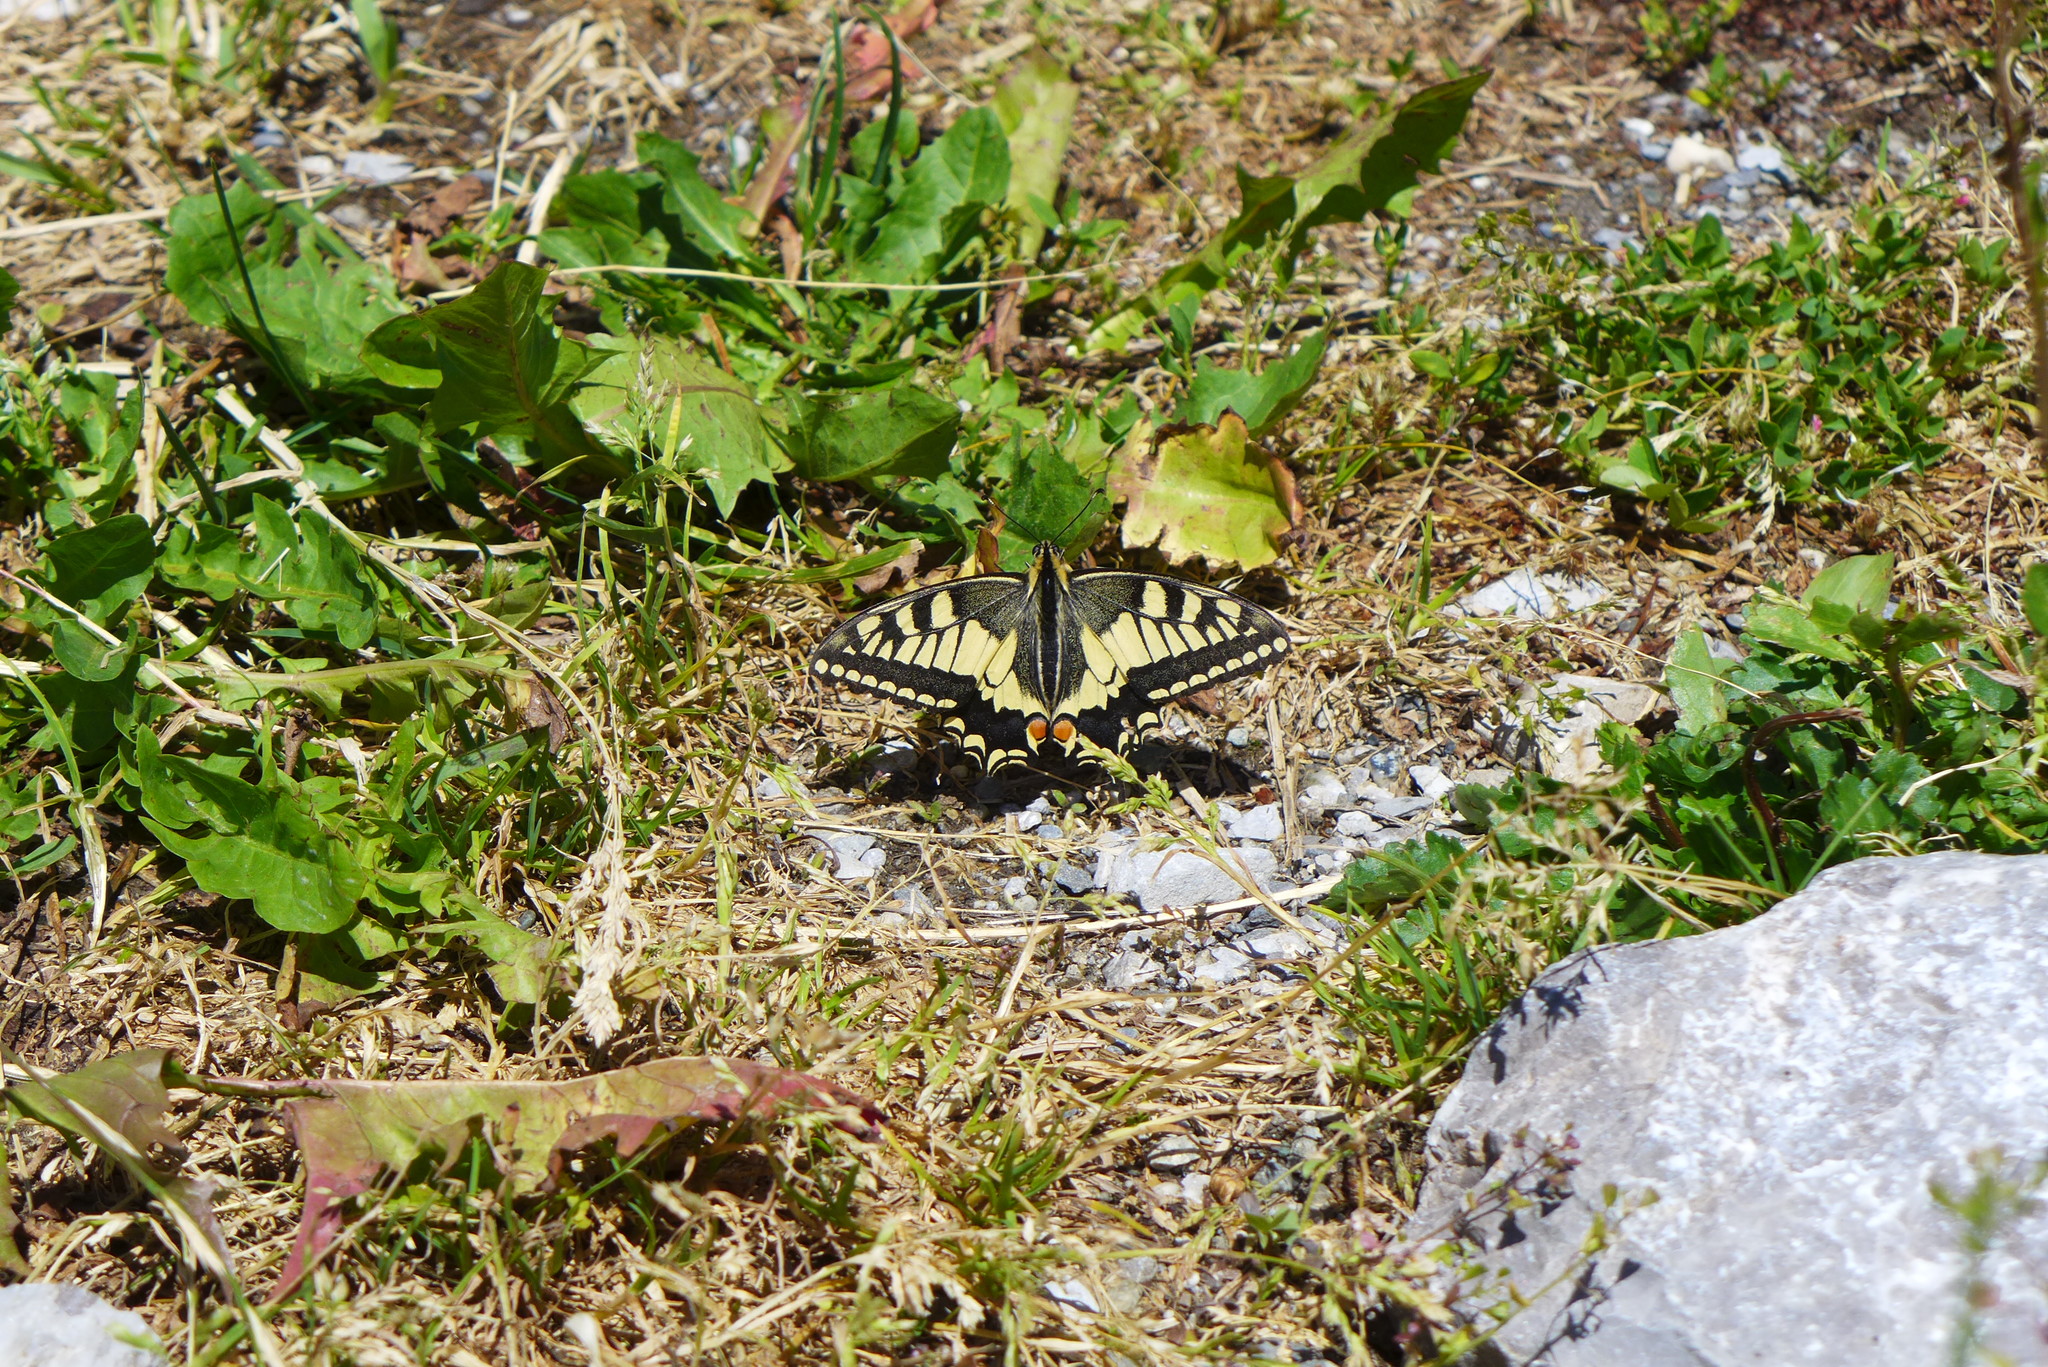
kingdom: Animalia
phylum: Arthropoda
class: Insecta
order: Lepidoptera
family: Papilionidae
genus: Papilio
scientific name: Papilio machaon
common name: Swallowtail
